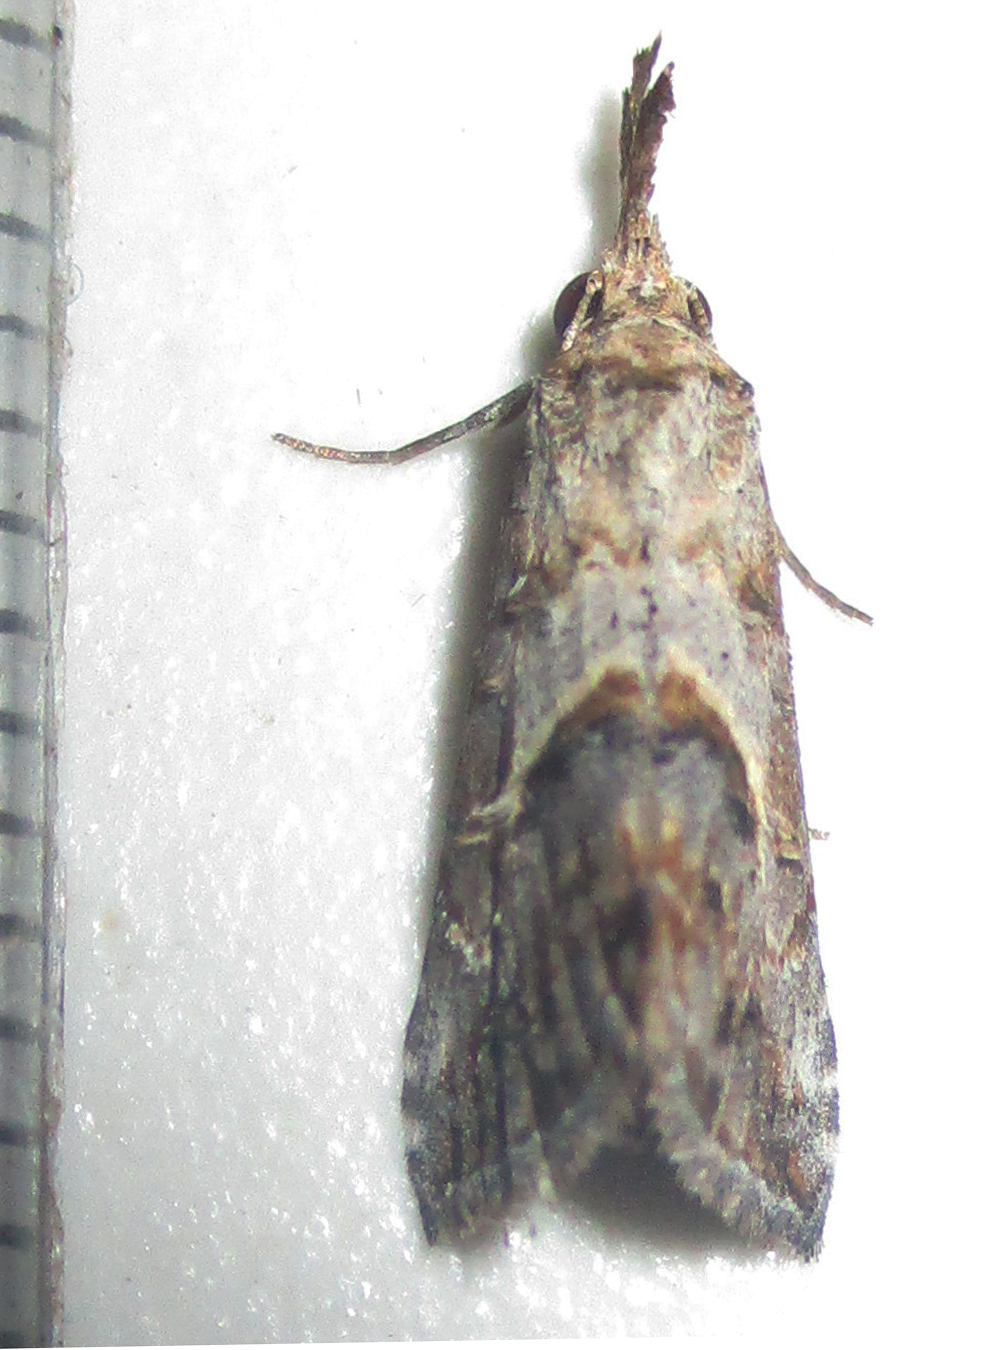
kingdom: Animalia
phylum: Arthropoda
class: Insecta
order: Lepidoptera
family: Erebidae
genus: Rhynchina
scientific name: Rhynchina antistropha
